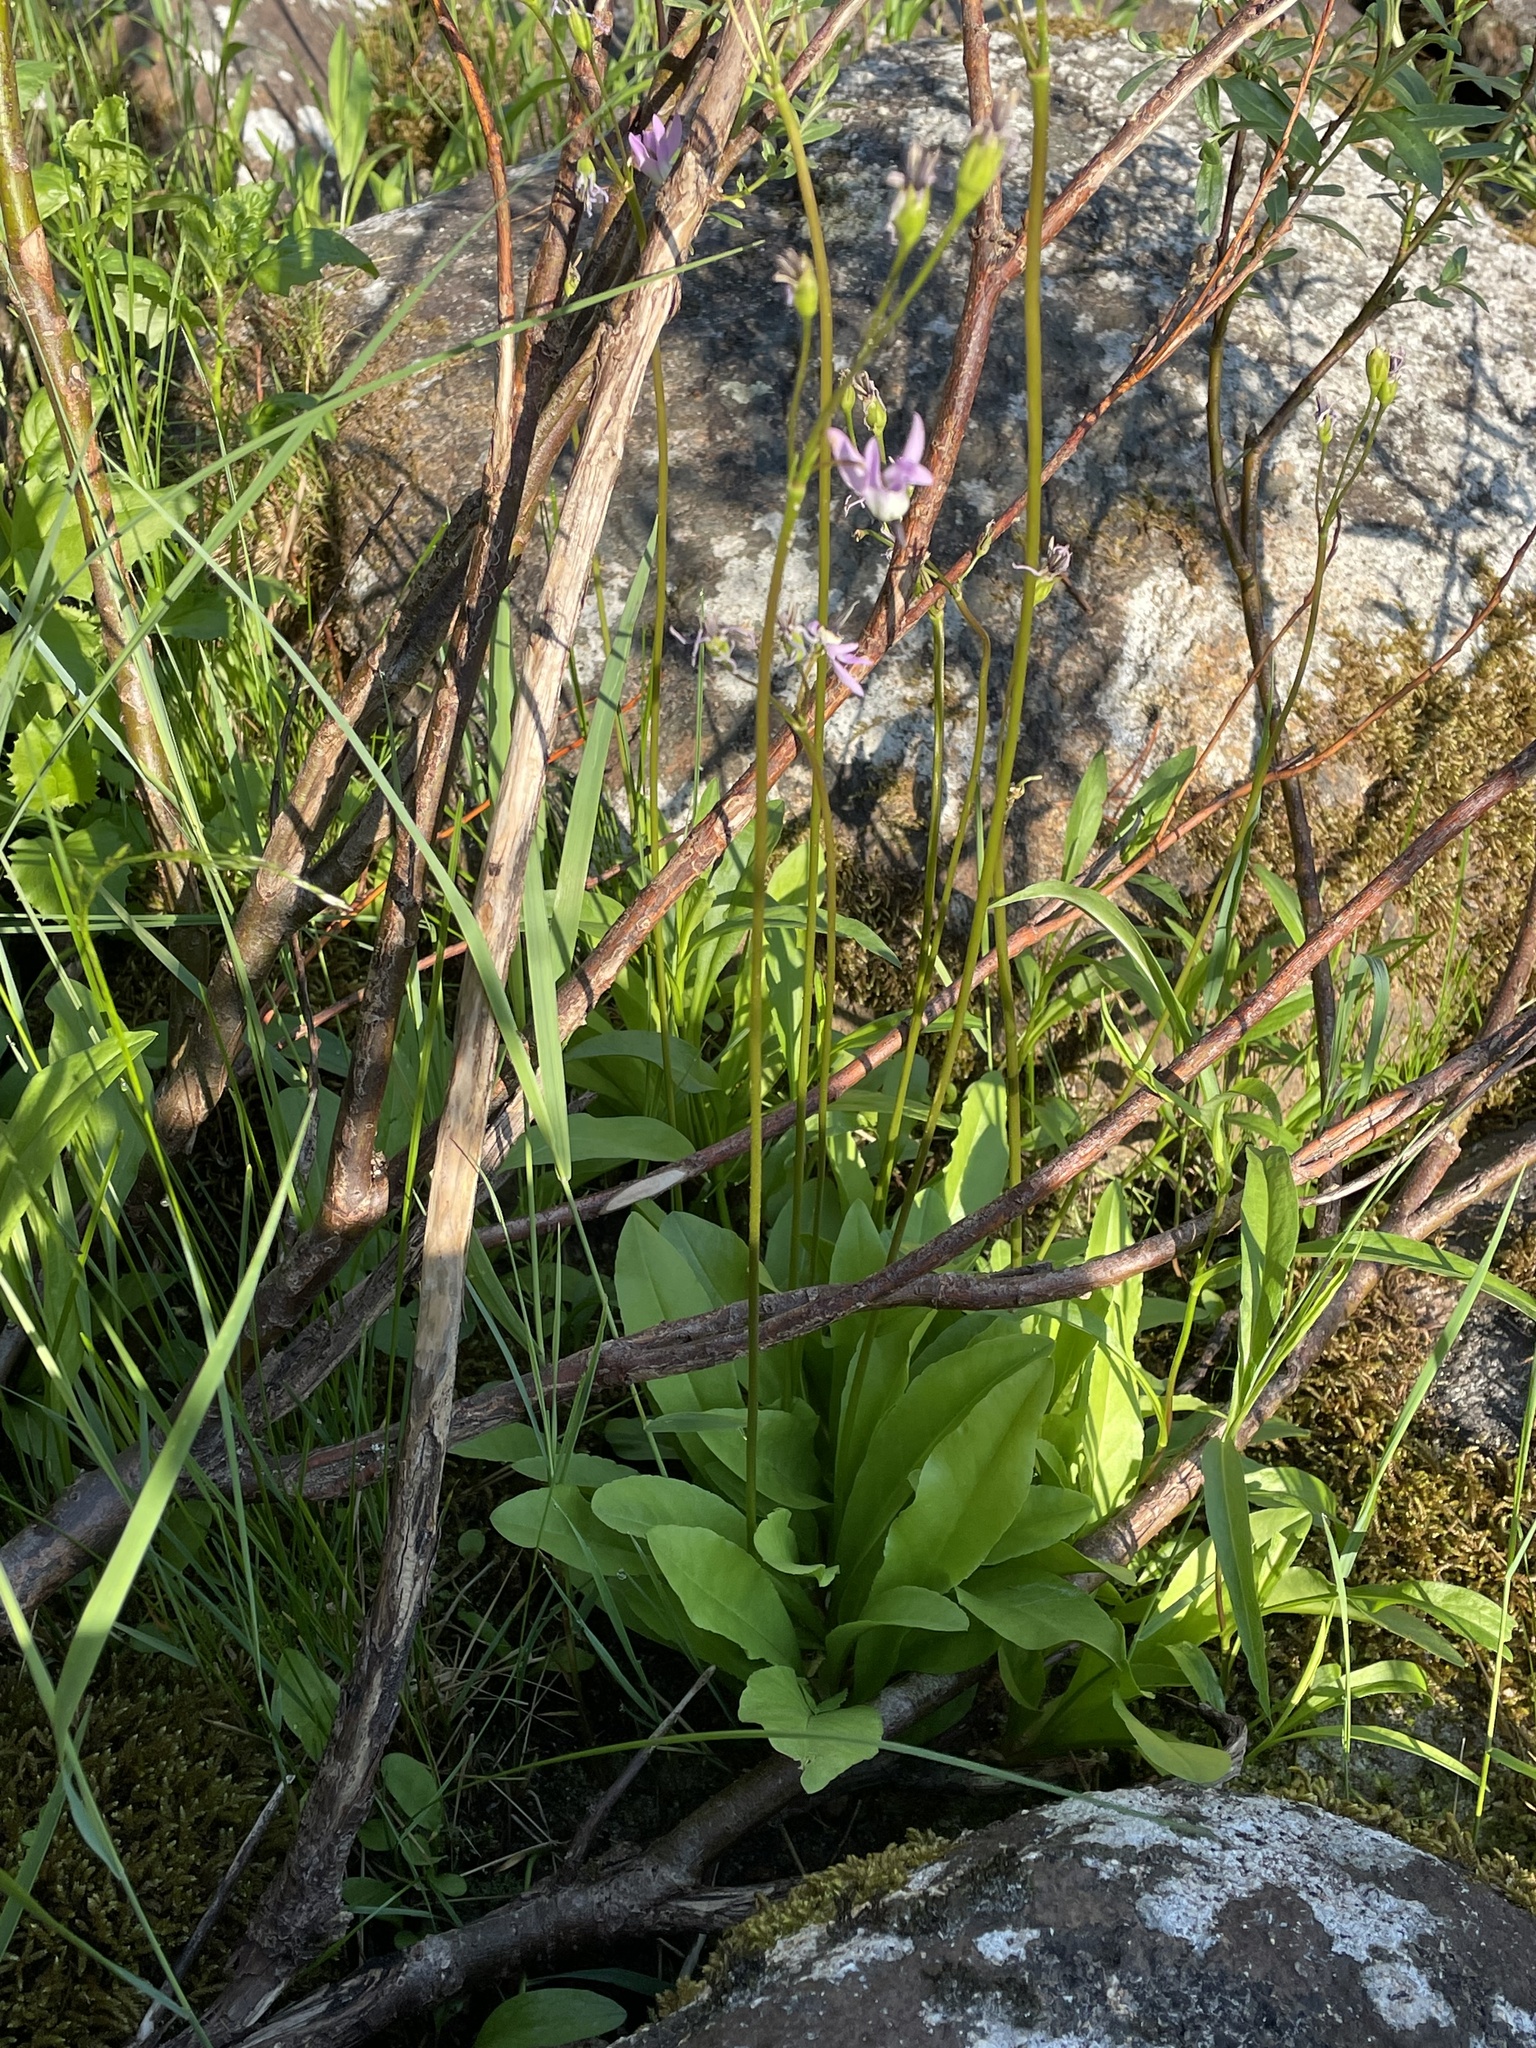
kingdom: Plantae
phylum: Tracheophyta
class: Magnoliopsida
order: Ericales
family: Primulaceae
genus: Dodecatheon
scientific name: Dodecatheon jeffreyanum
